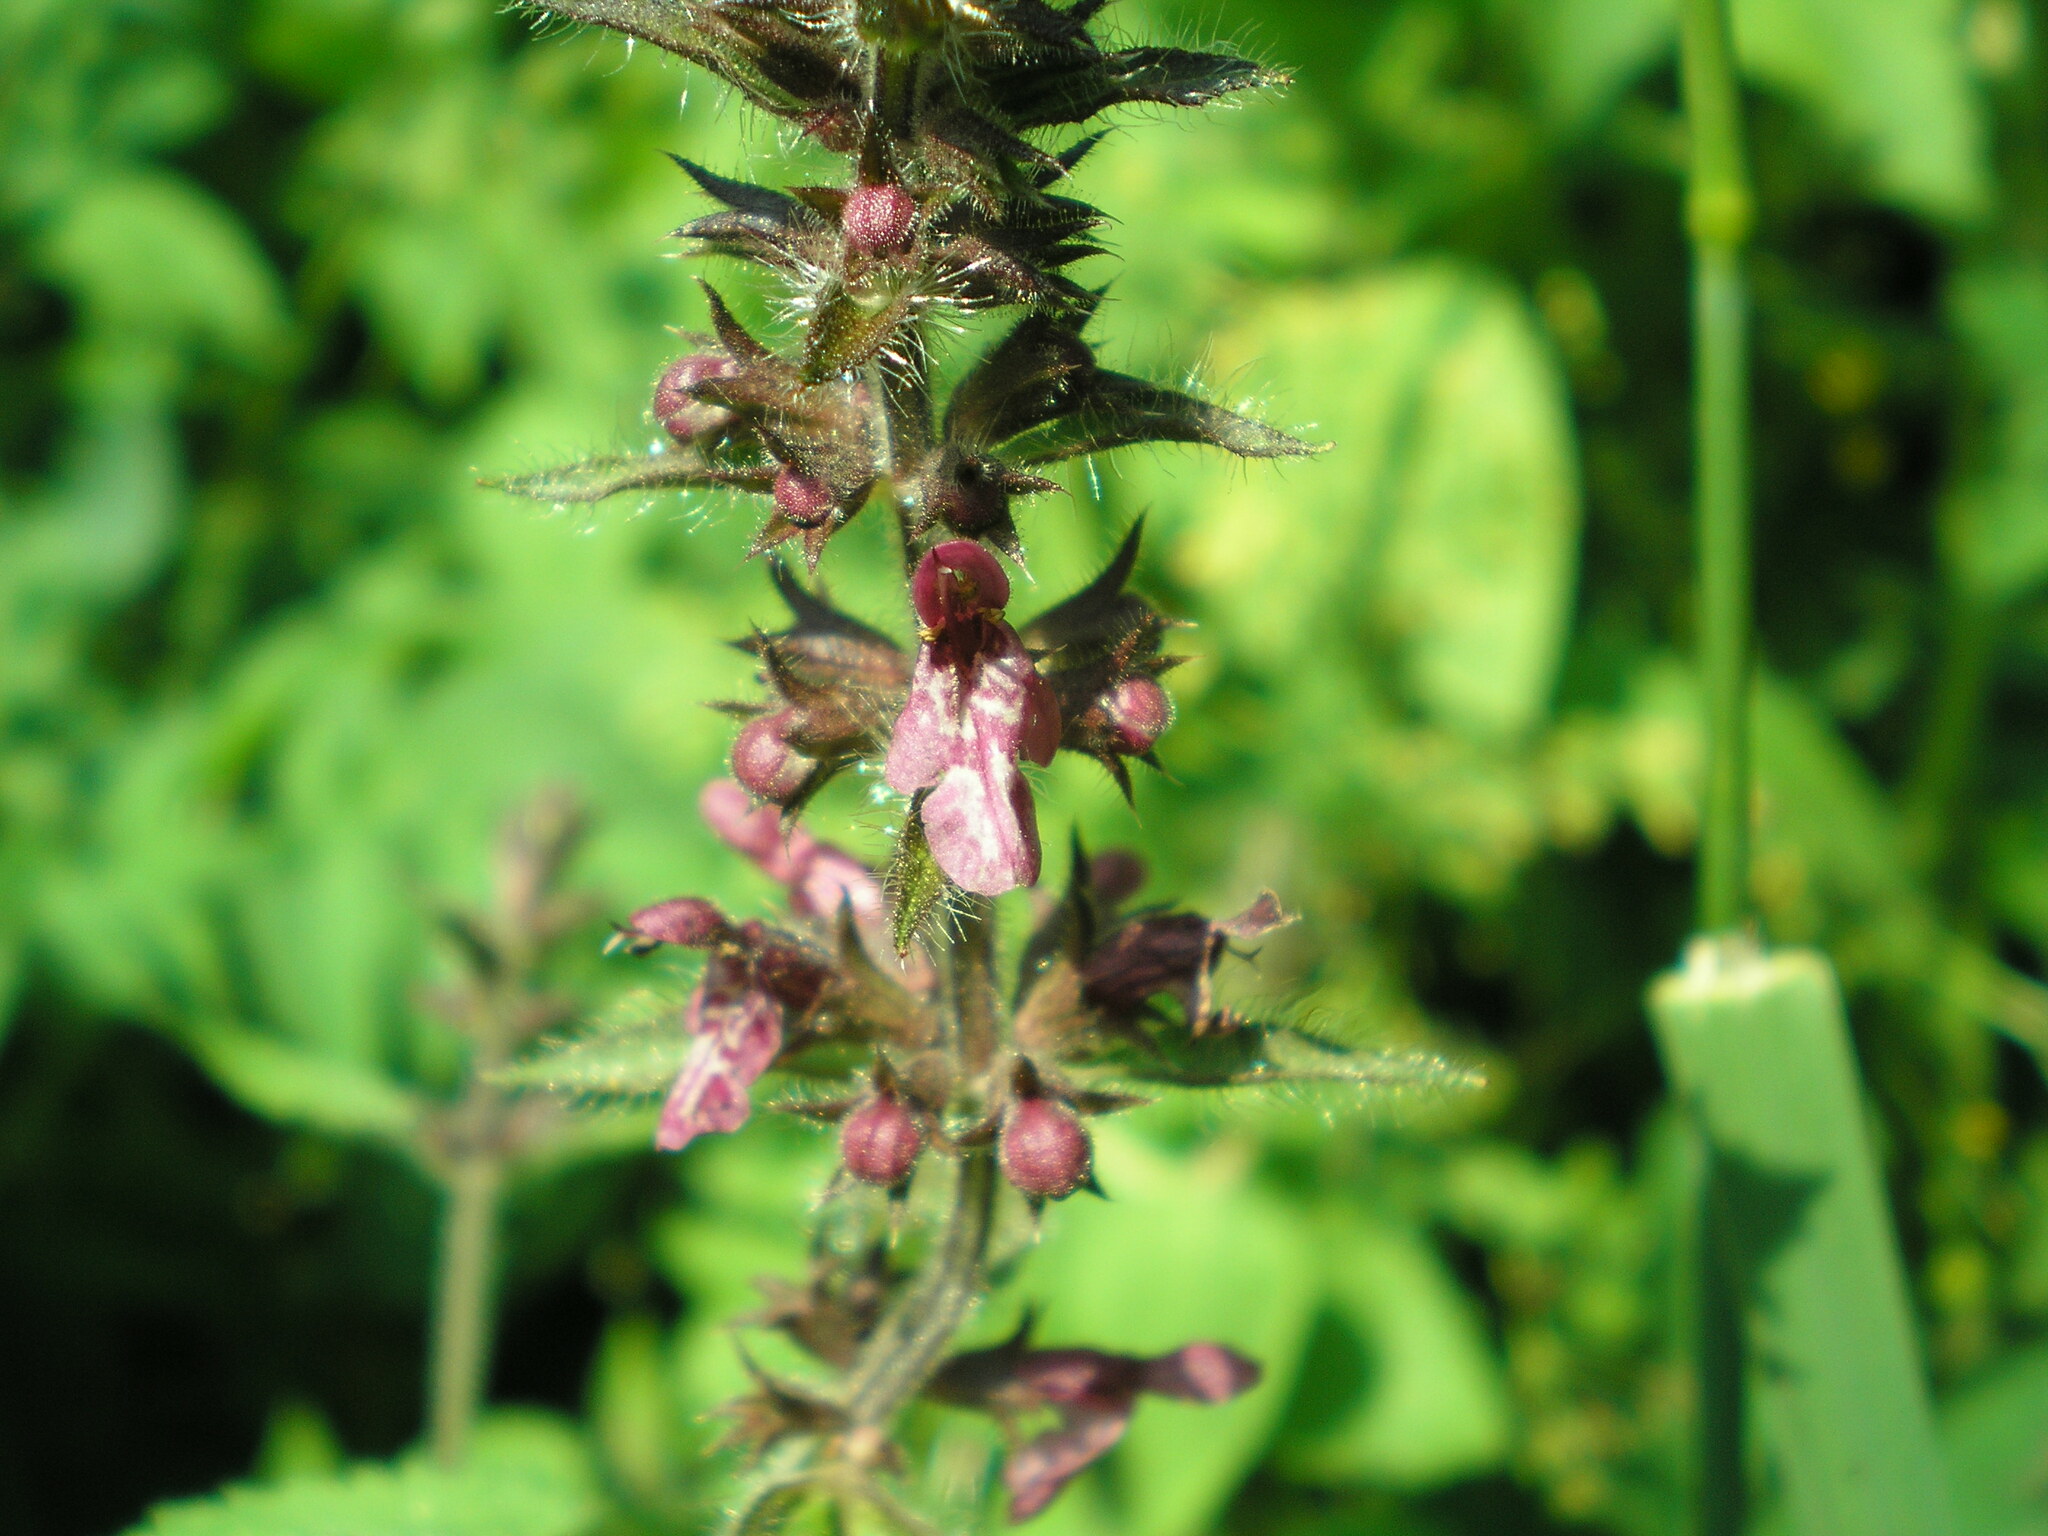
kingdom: Plantae
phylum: Tracheophyta
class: Magnoliopsida
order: Lamiales
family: Lamiaceae
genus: Stachys
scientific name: Stachys sylvatica
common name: Hedge woundwort
